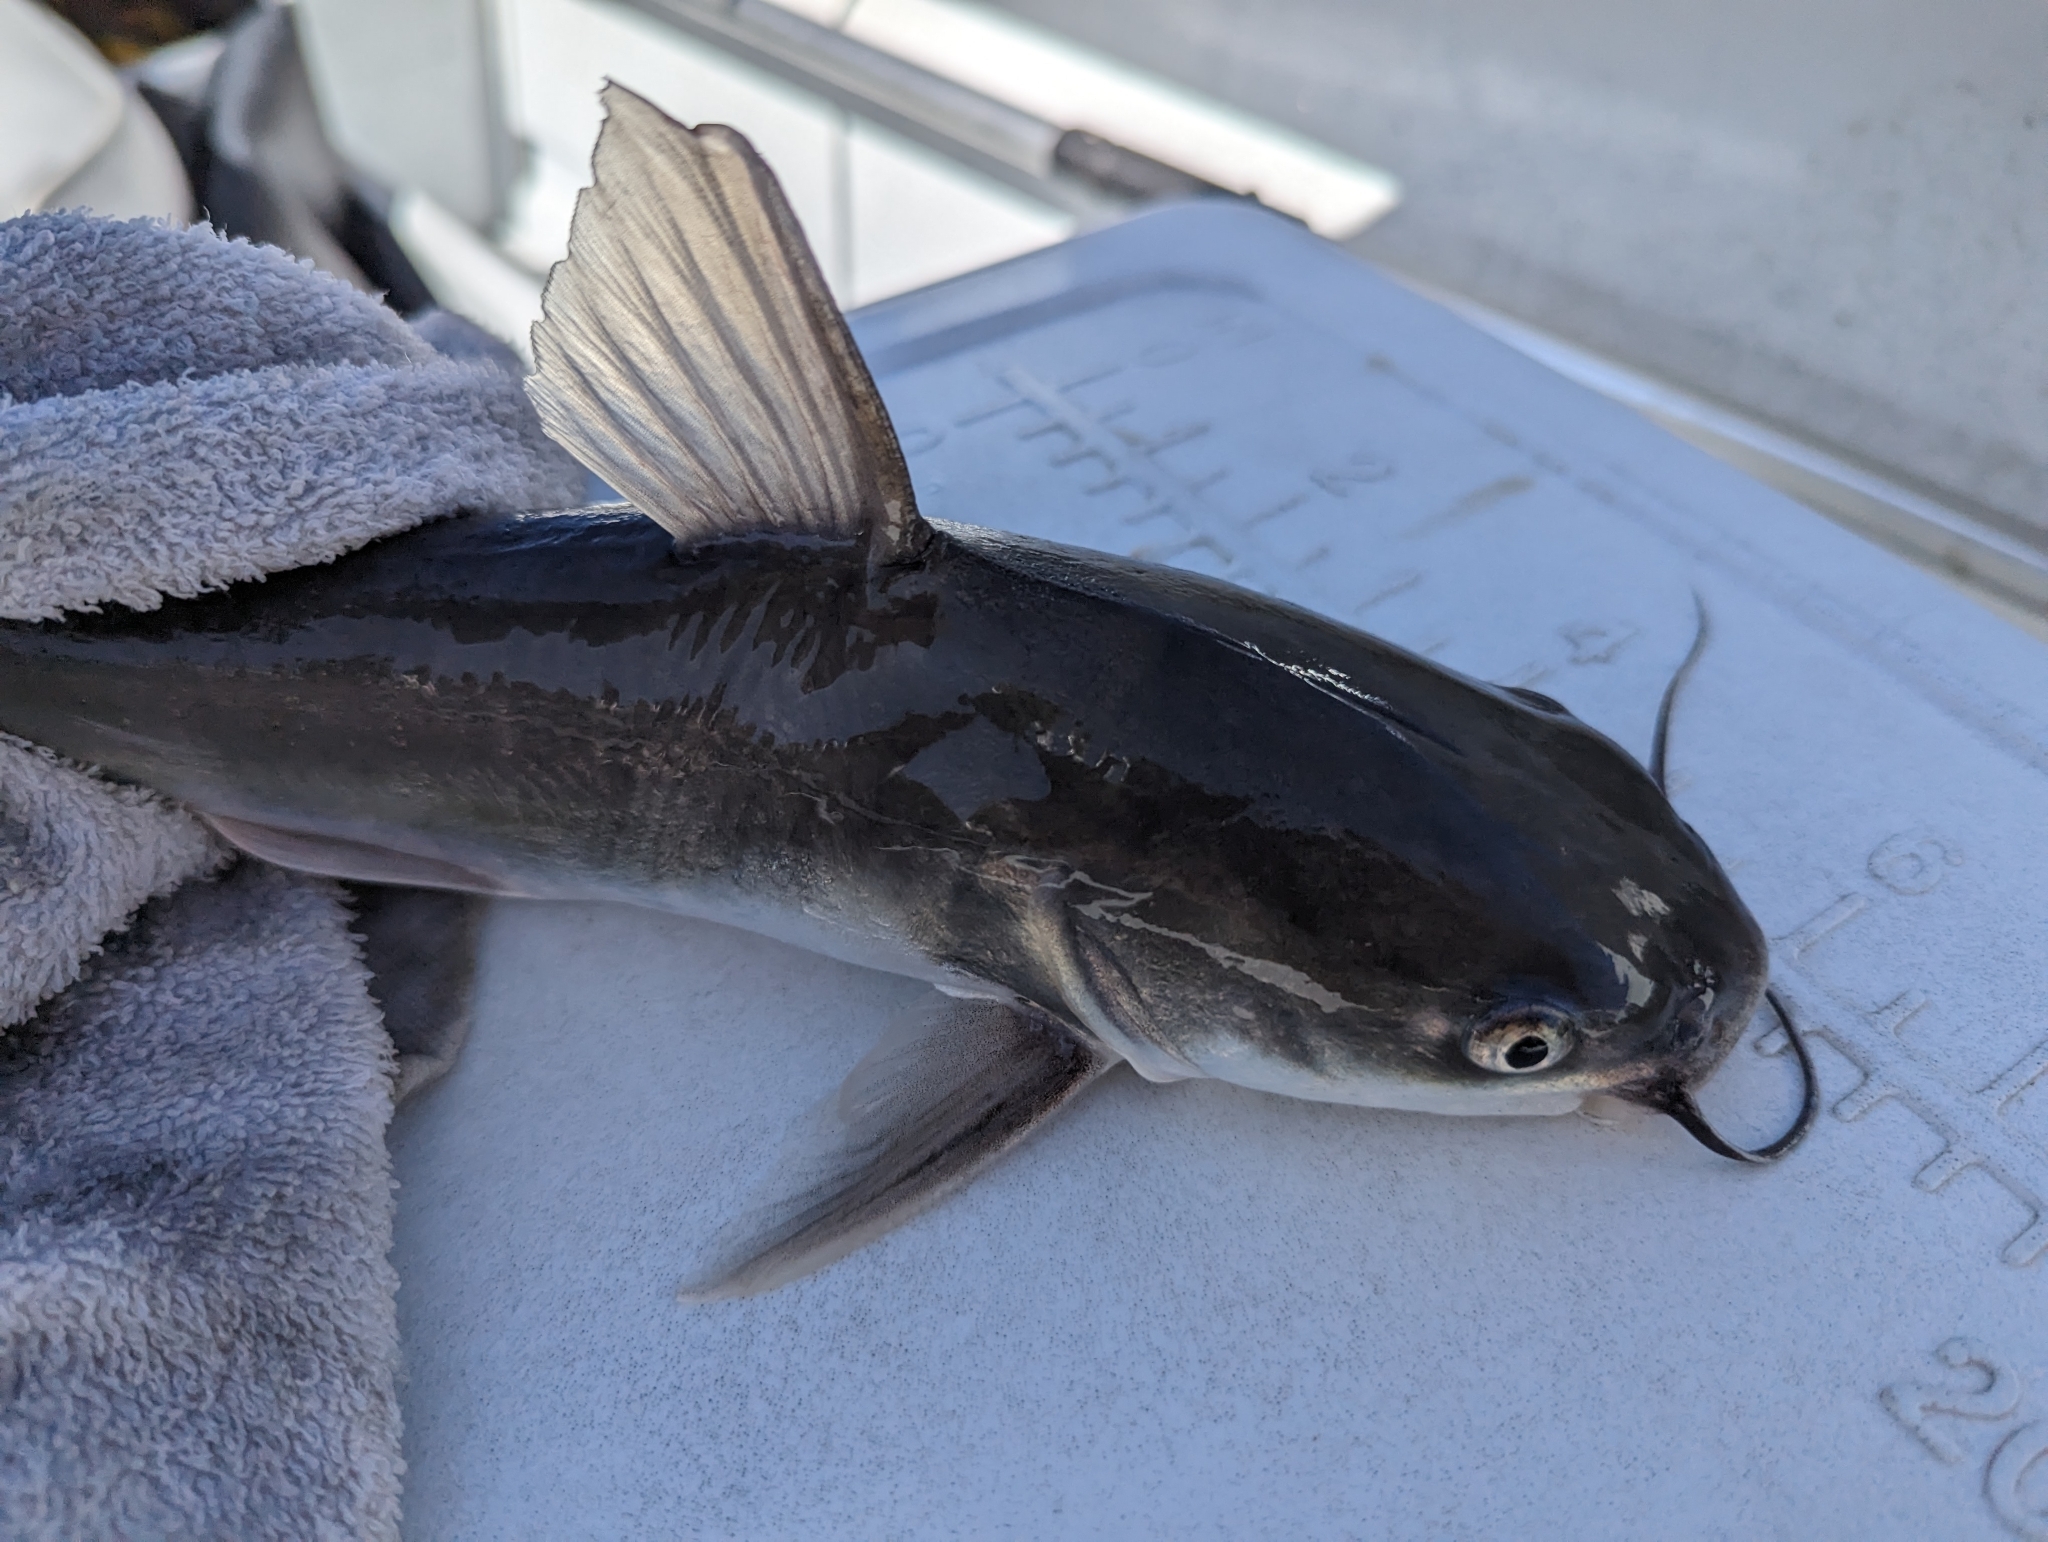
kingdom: Animalia
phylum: Chordata
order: Siluriformes
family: Ariidae
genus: Neoarius
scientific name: Neoarius graeffei
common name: Blue salmon catfish
